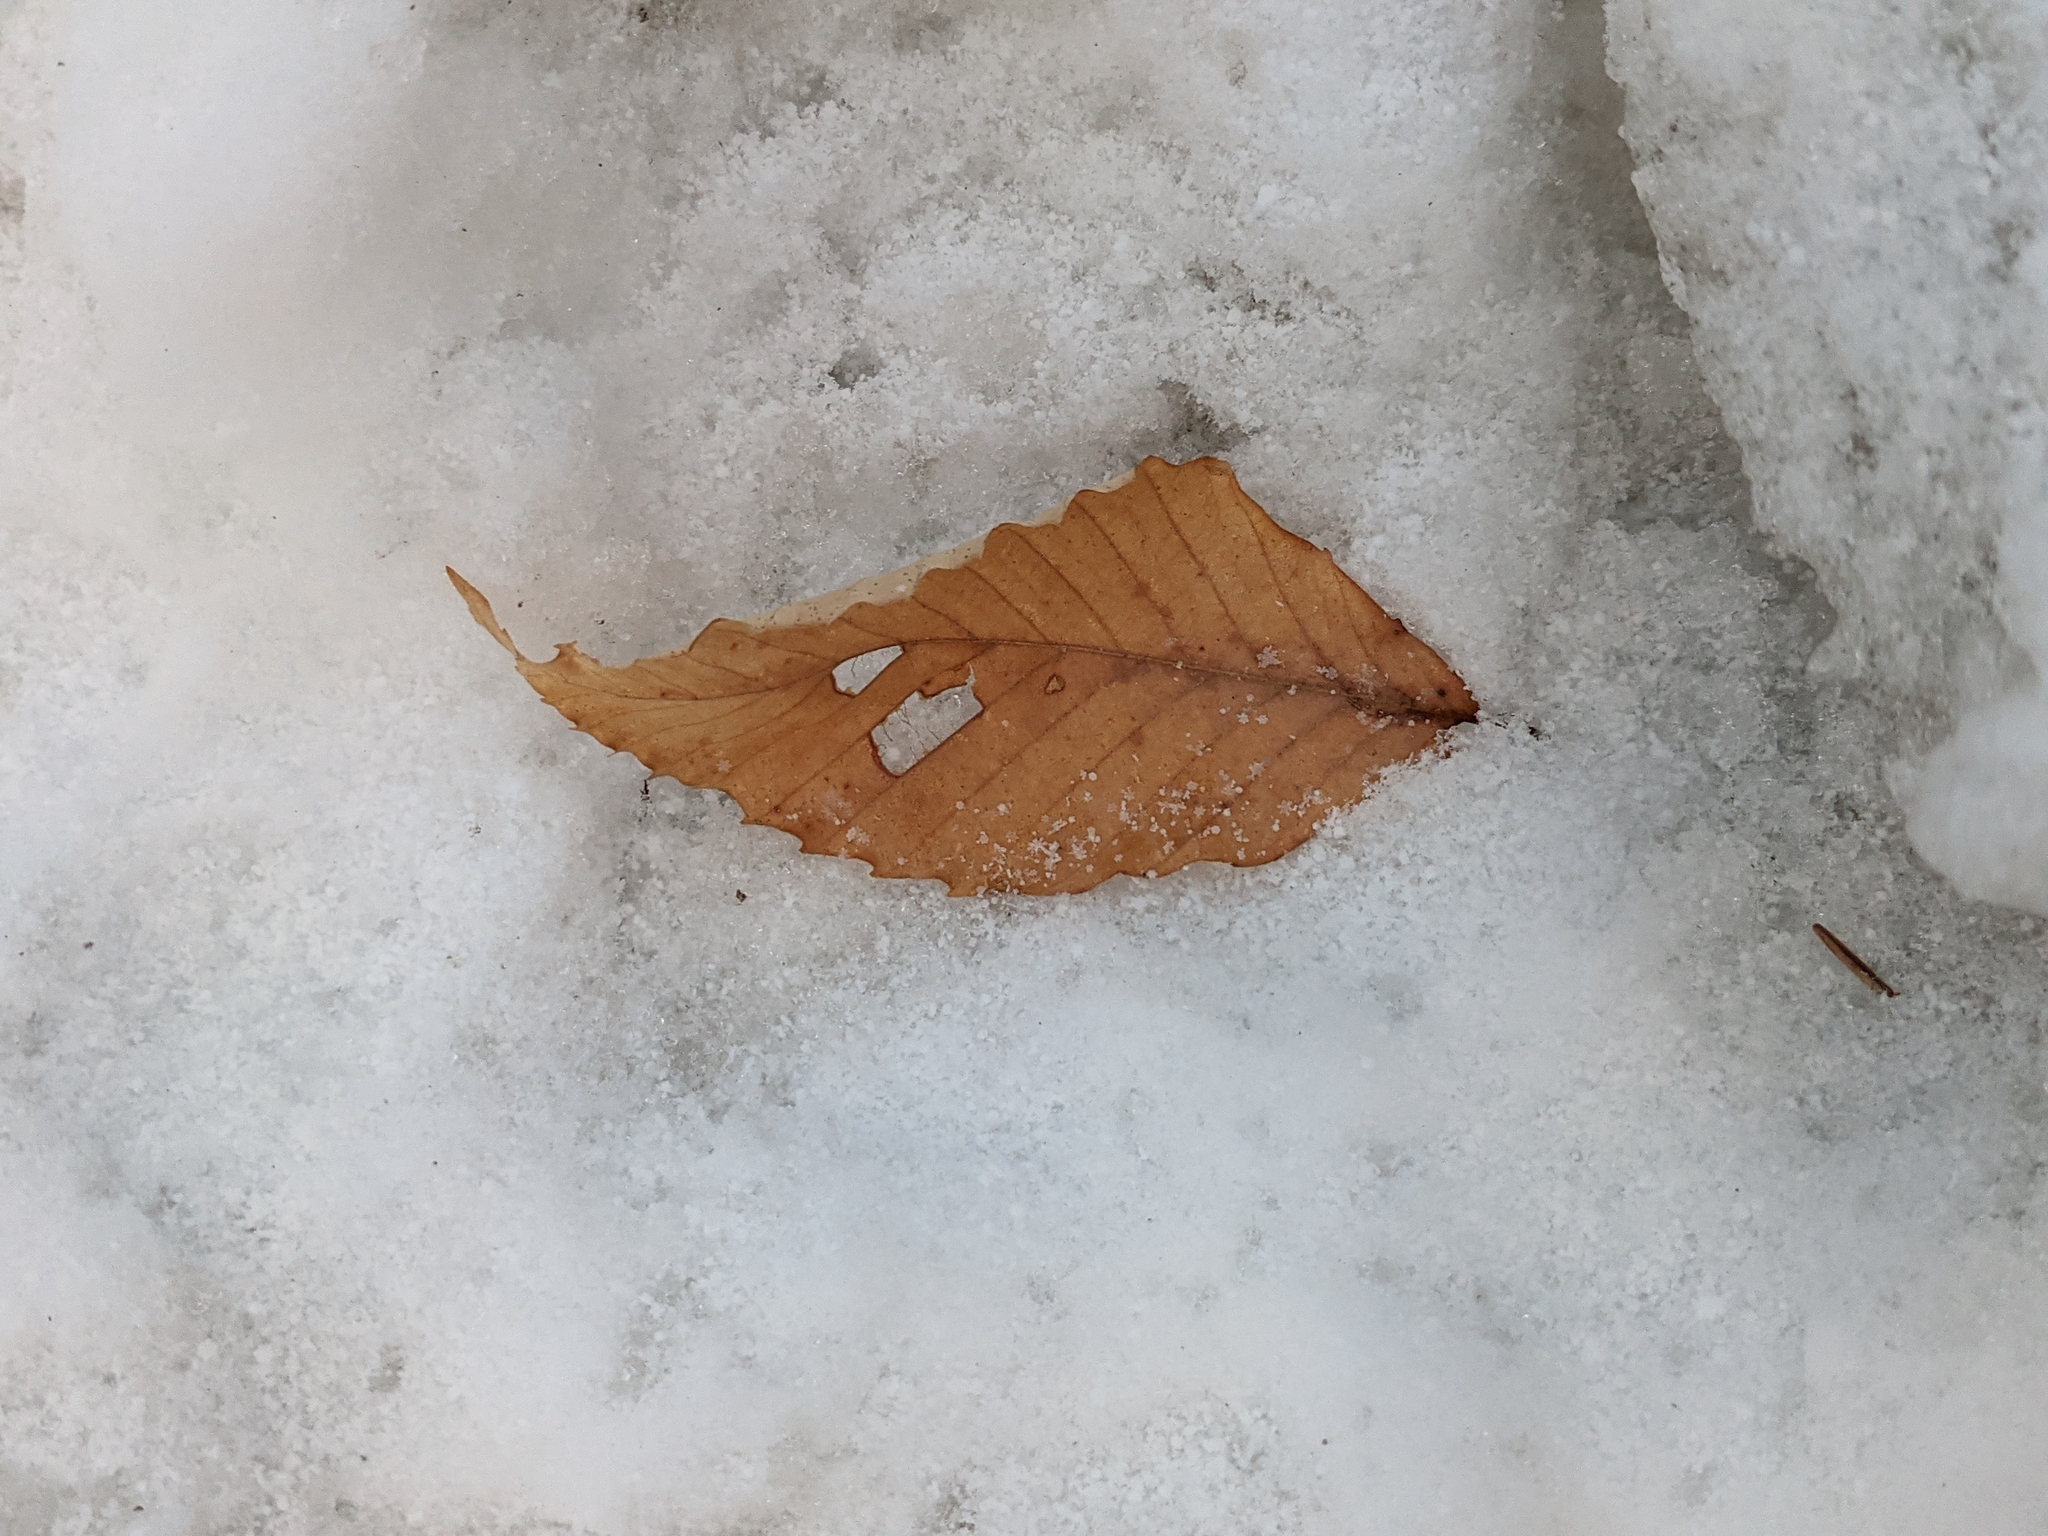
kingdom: Plantae
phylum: Tracheophyta
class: Magnoliopsida
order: Fagales
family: Fagaceae
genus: Fagus
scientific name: Fagus grandifolia
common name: American beech
